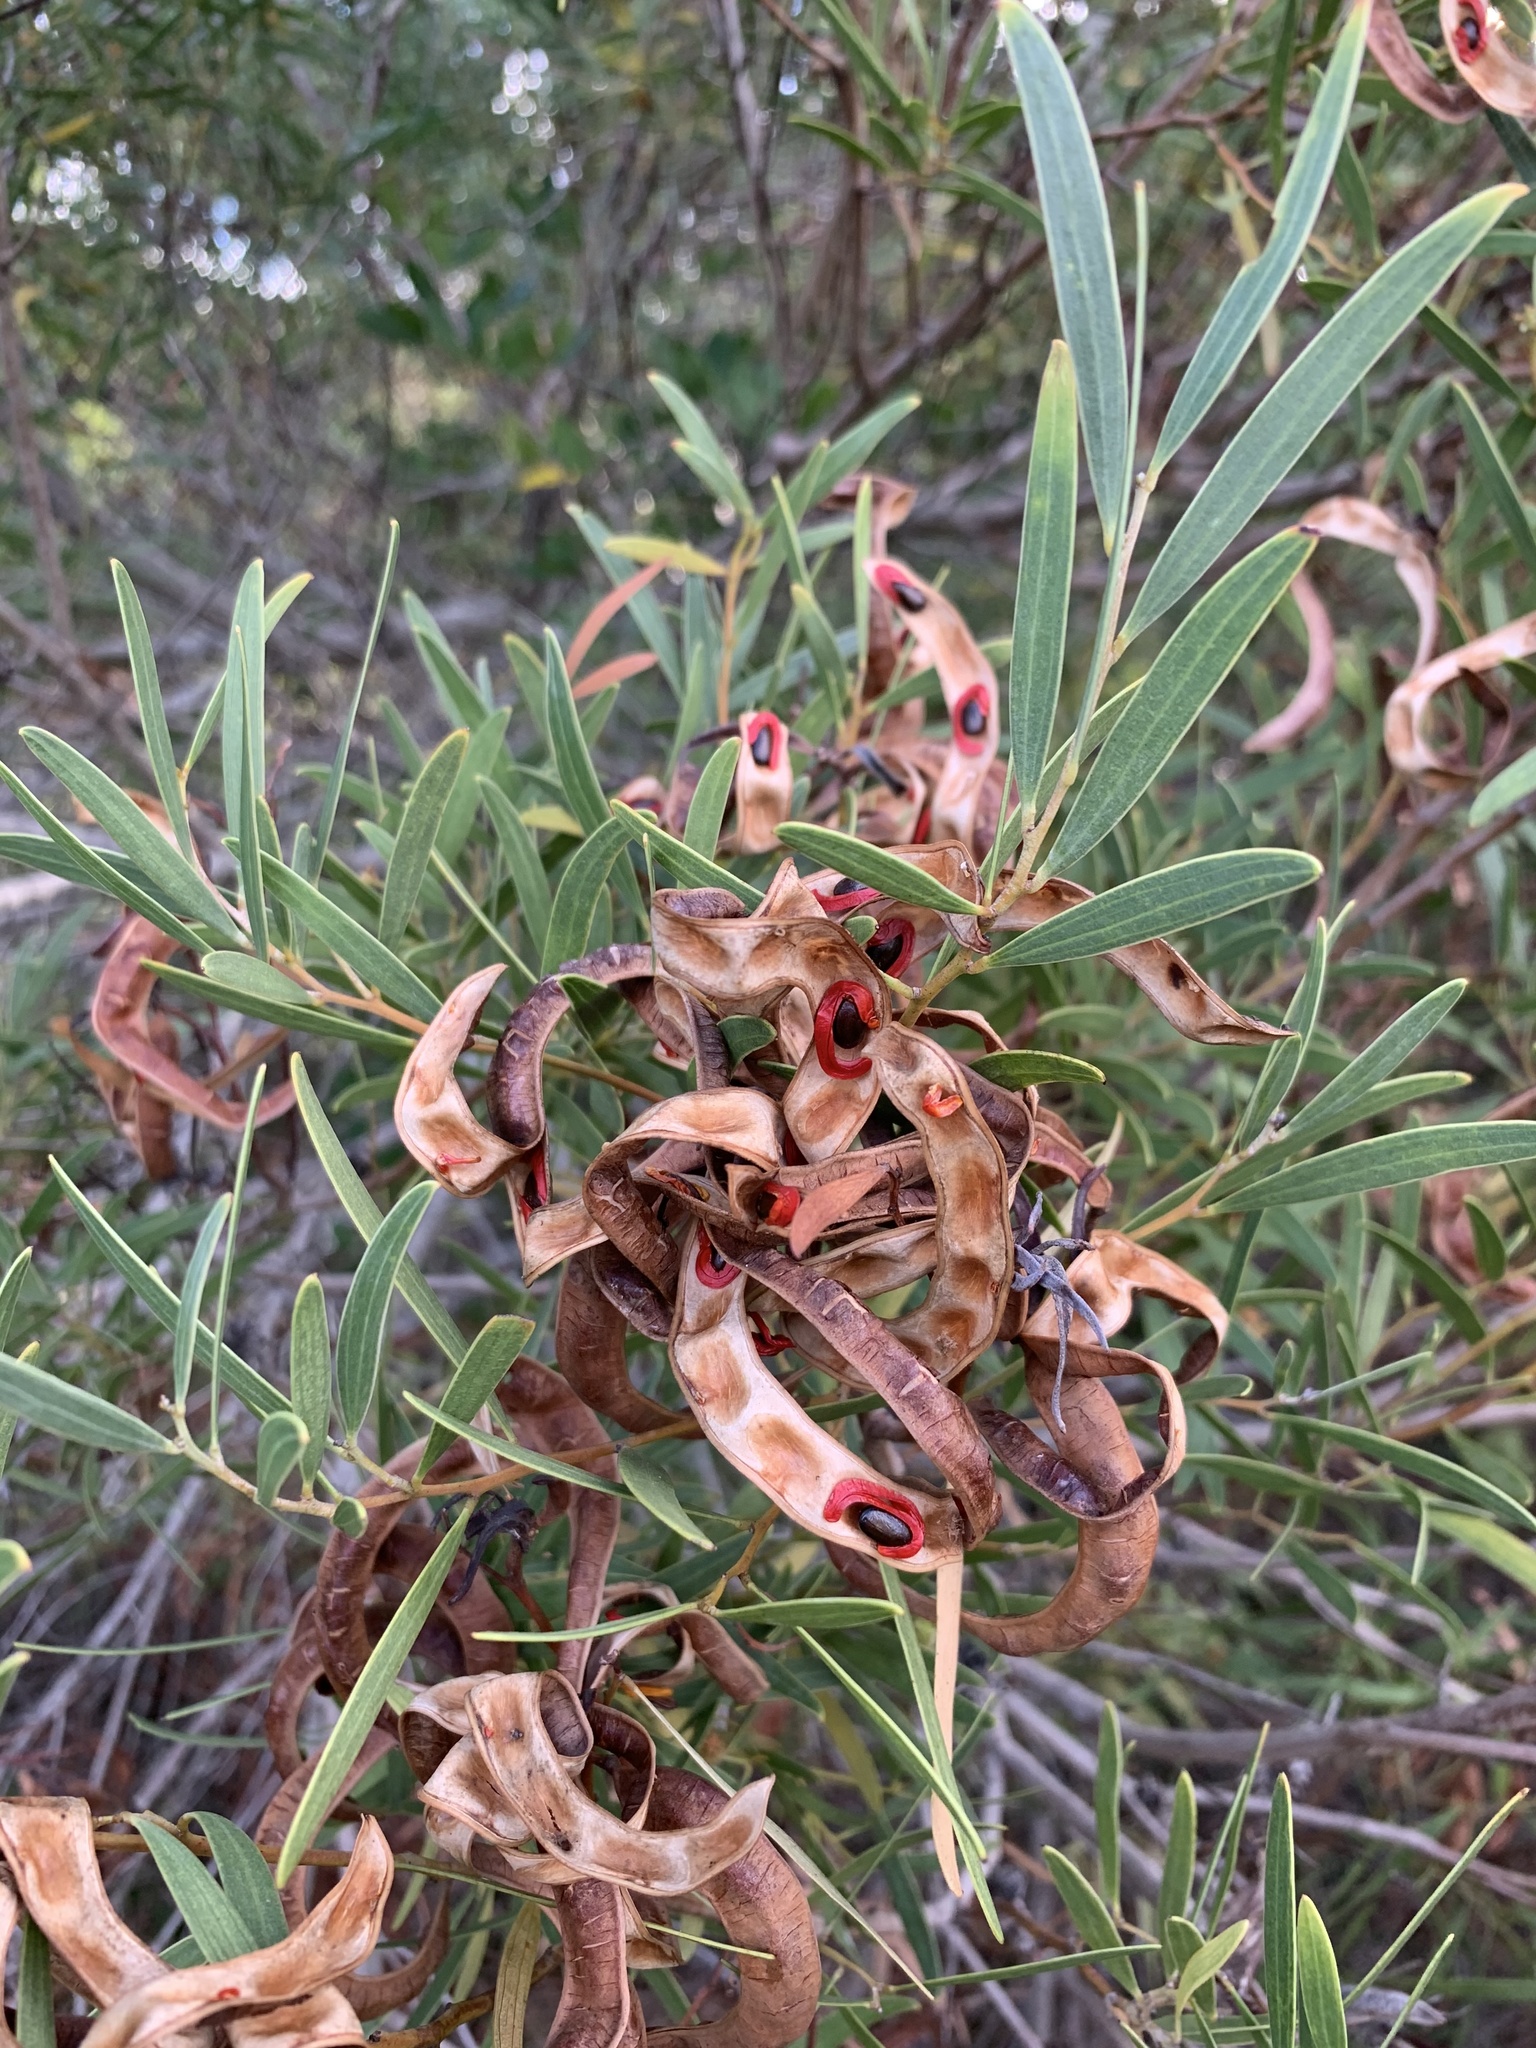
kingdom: Plantae
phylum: Tracheophyta
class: Magnoliopsida
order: Fabales
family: Fabaceae
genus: Acacia
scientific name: Acacia cyclops
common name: Coastal wattle
